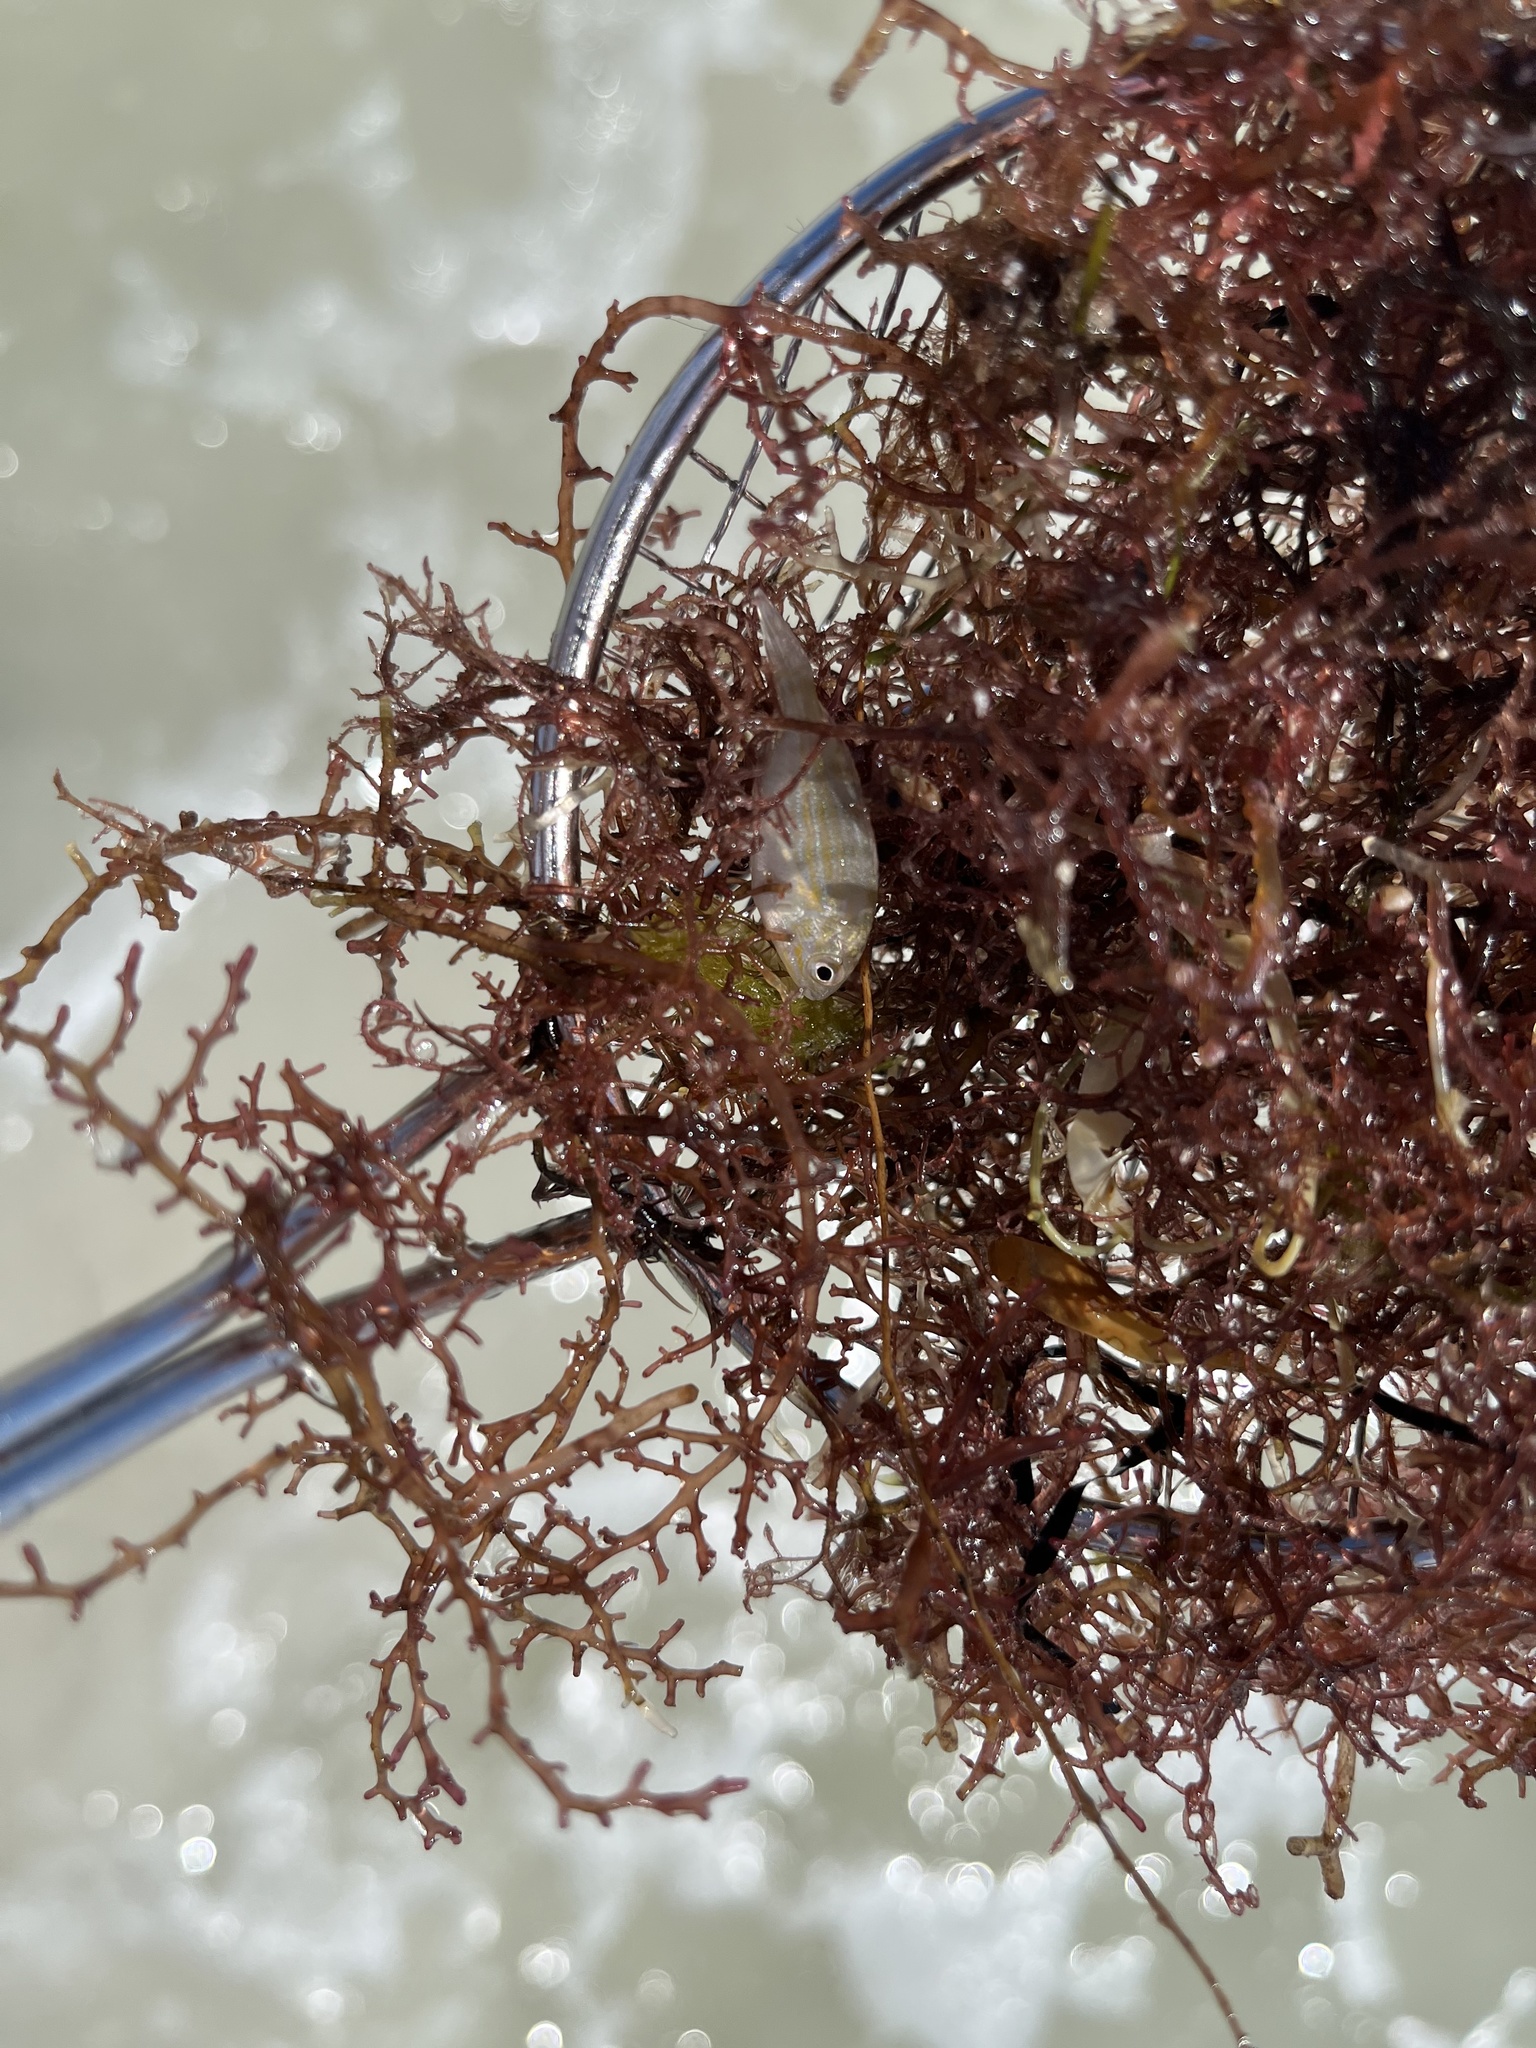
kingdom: Animalia
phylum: Chordata
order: Perciformes
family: Sparidae
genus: Lagodon
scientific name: Lagodon rhomboides
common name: Pinfish
